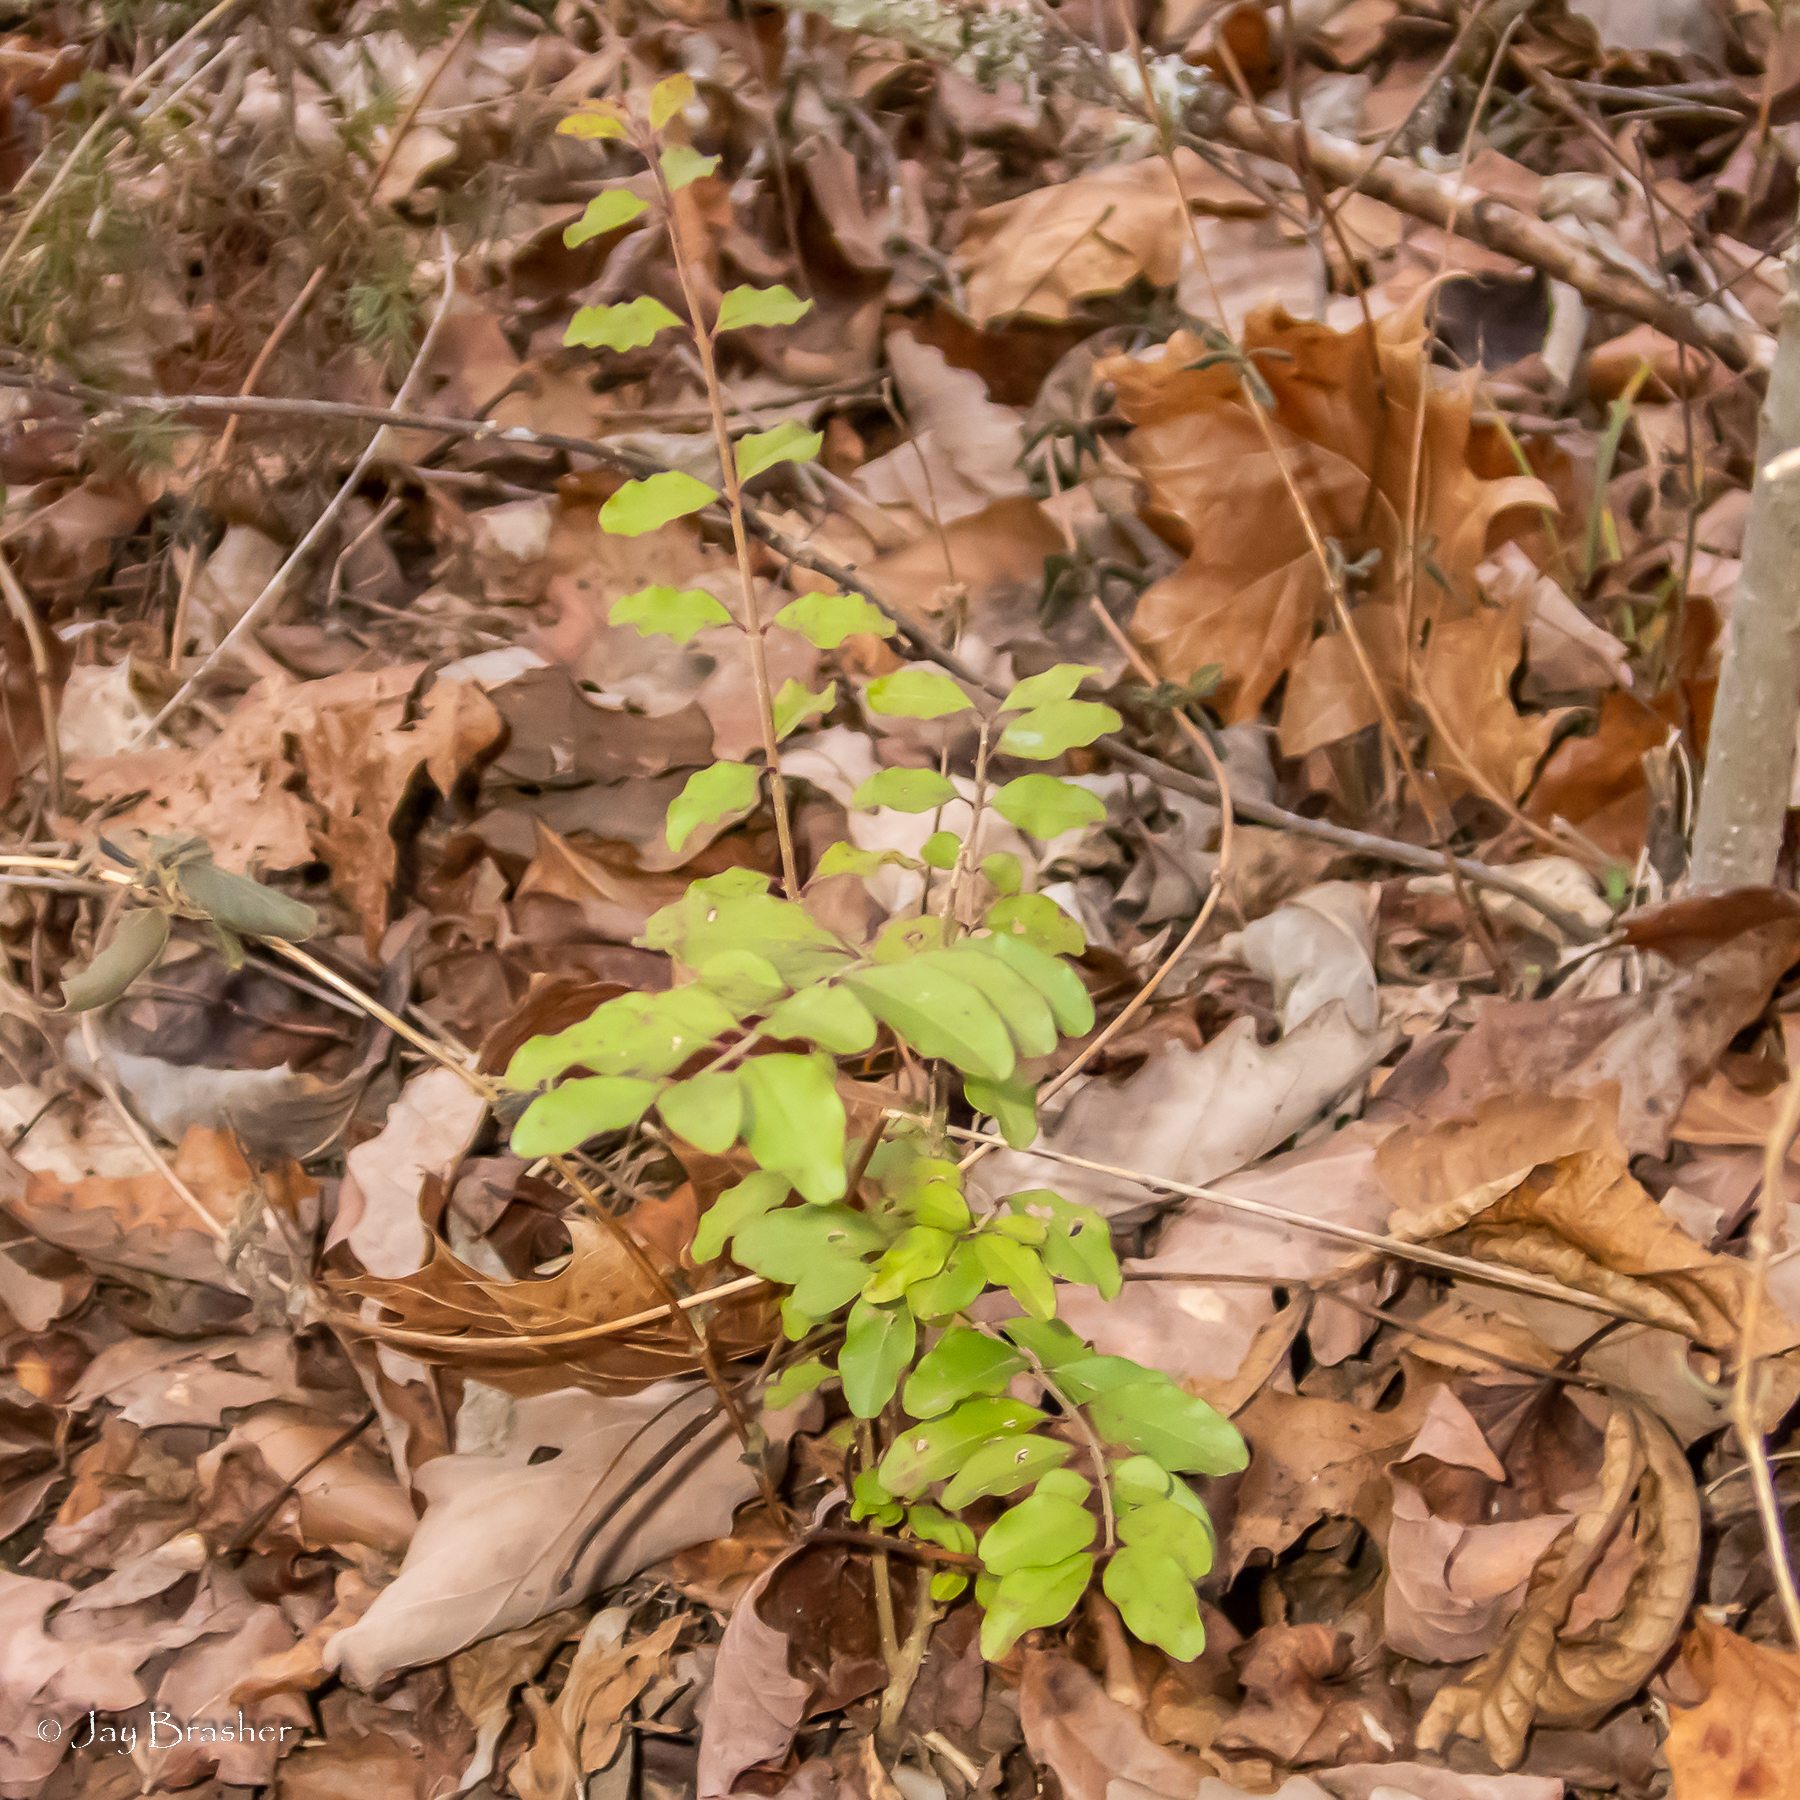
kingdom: Plantae
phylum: Tracheophyta
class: Magnoliopsida
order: Lamiales
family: Oleaceae
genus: Ligustrum
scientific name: Ligustrum sinense
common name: Chinese privet
